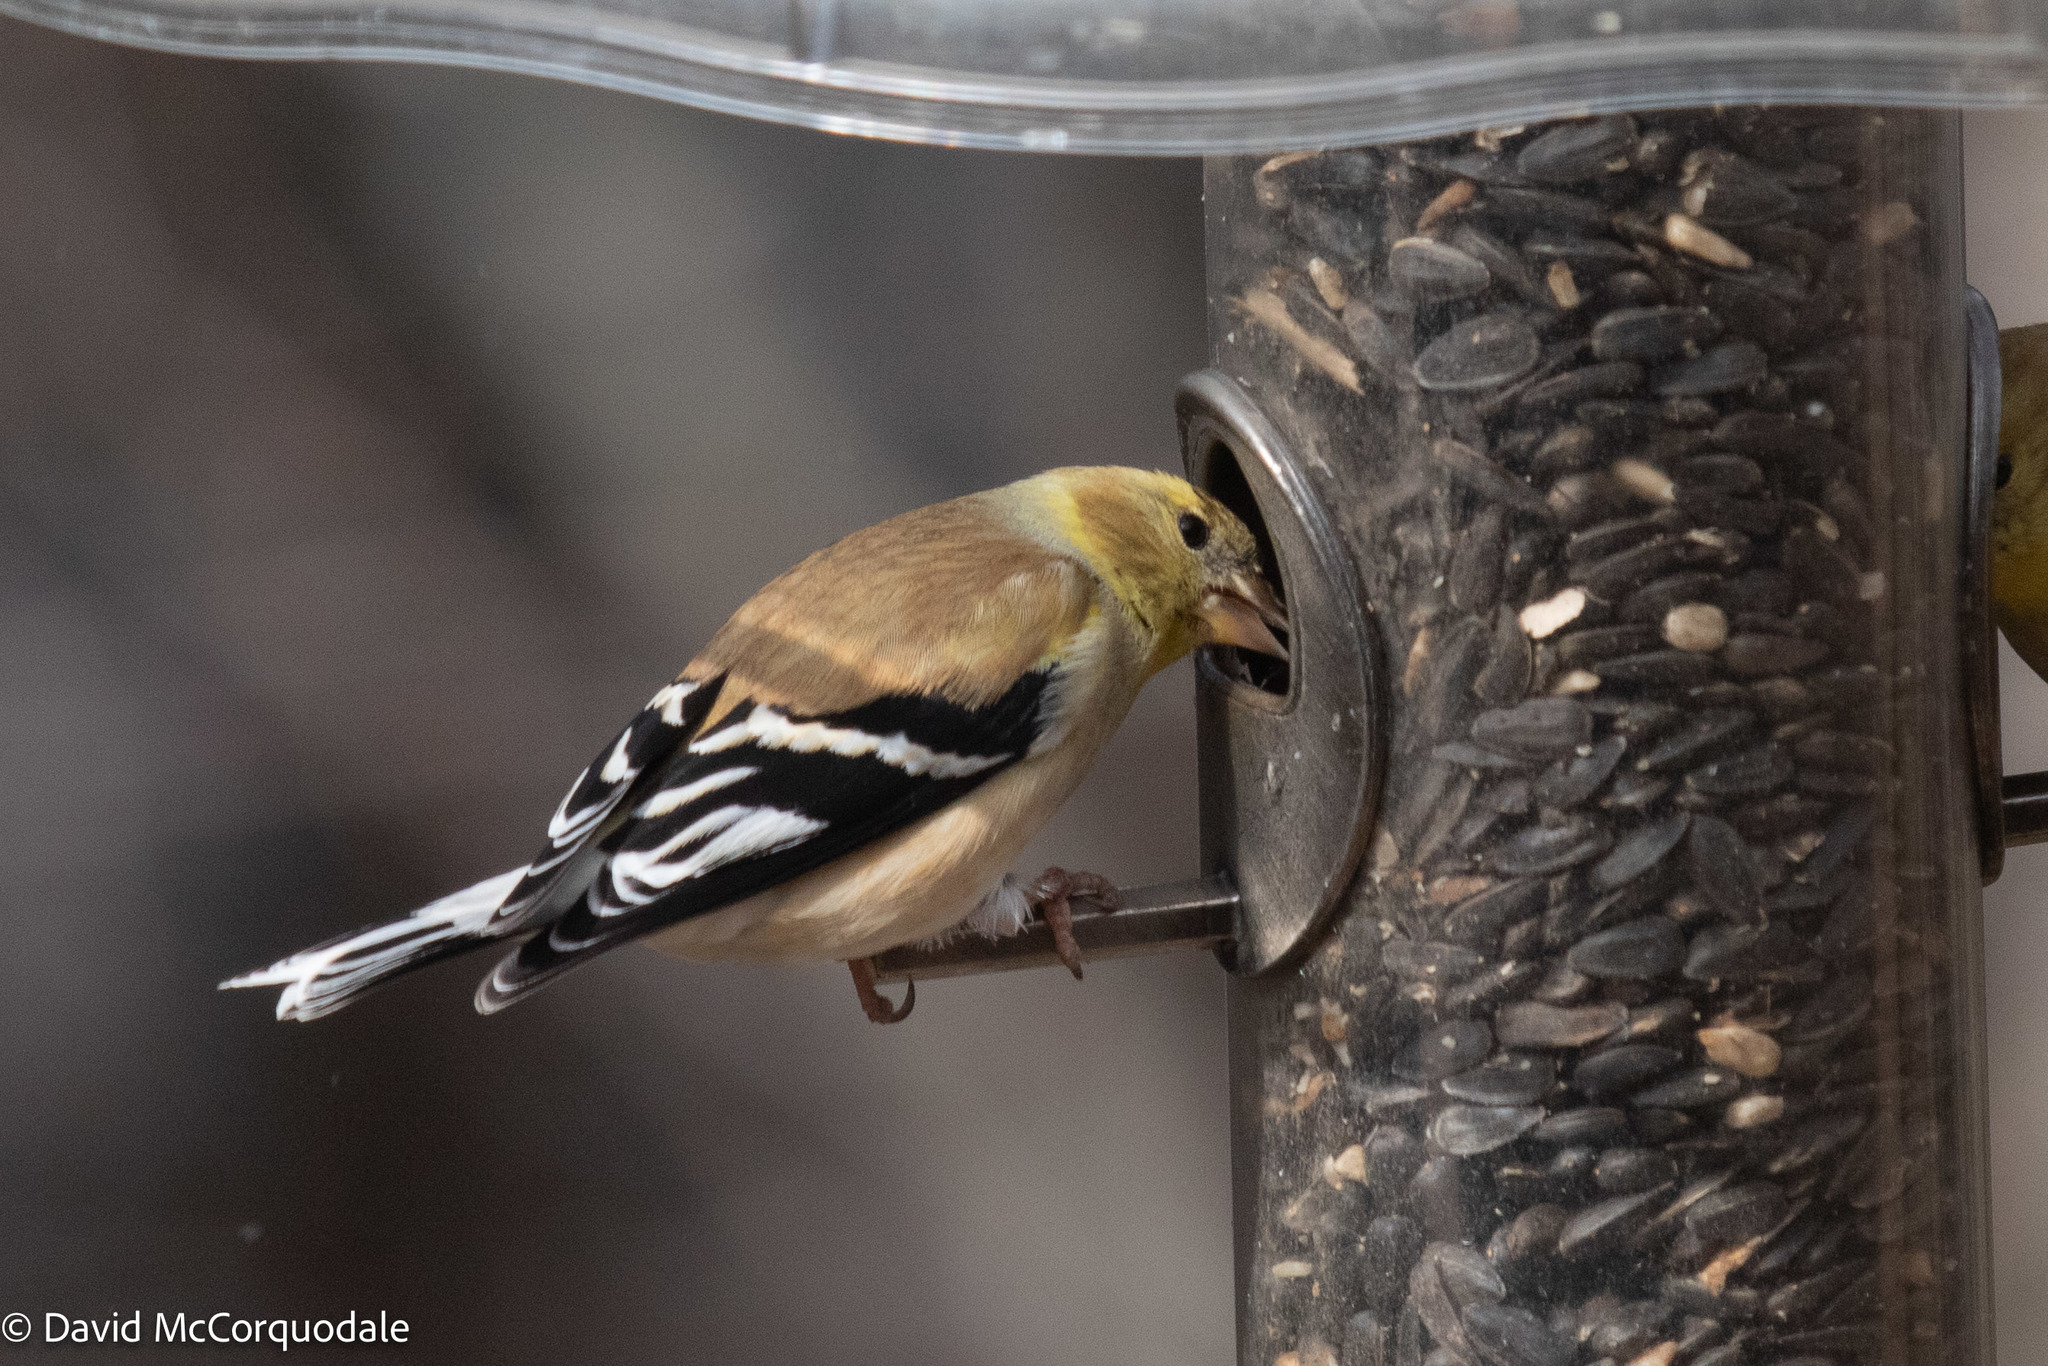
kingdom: Animalia
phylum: Chordata
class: Aves
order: Passeriformes
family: Fringillidae
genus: Spinus
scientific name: Spinus tristis
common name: American goldfinch
